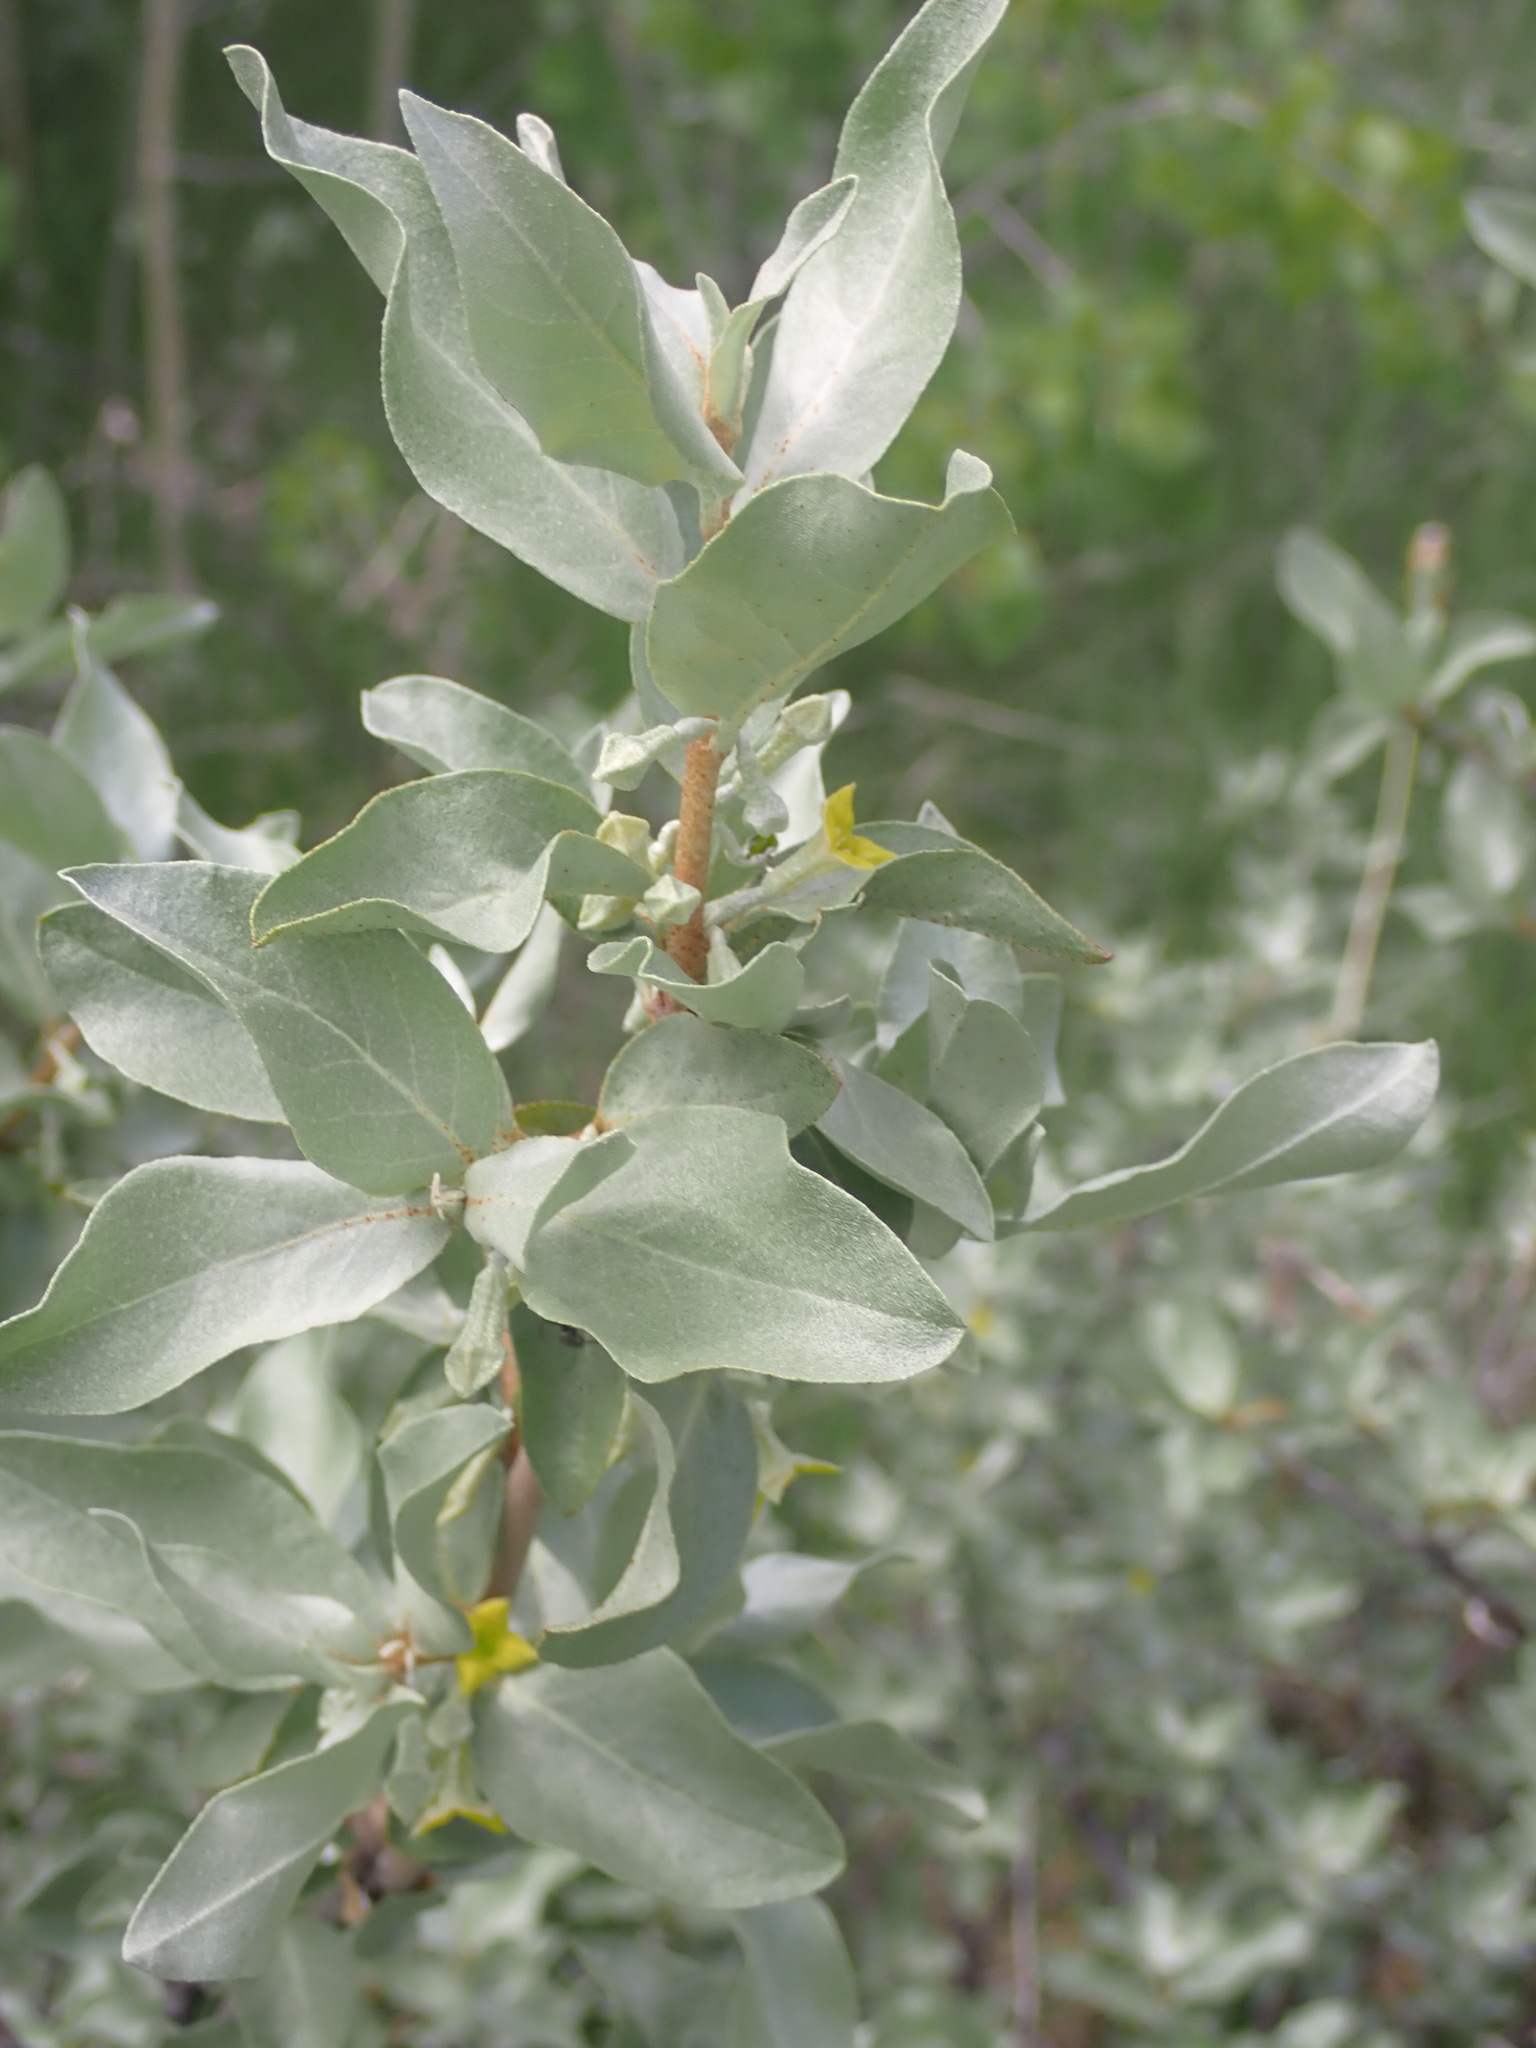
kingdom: Plantae
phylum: Tracheophyta
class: Magnoliopsida
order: Rosales
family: Elaeagnaceae
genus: Elaeagnus
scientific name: Elaeagnus commutata
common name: Silverberry
